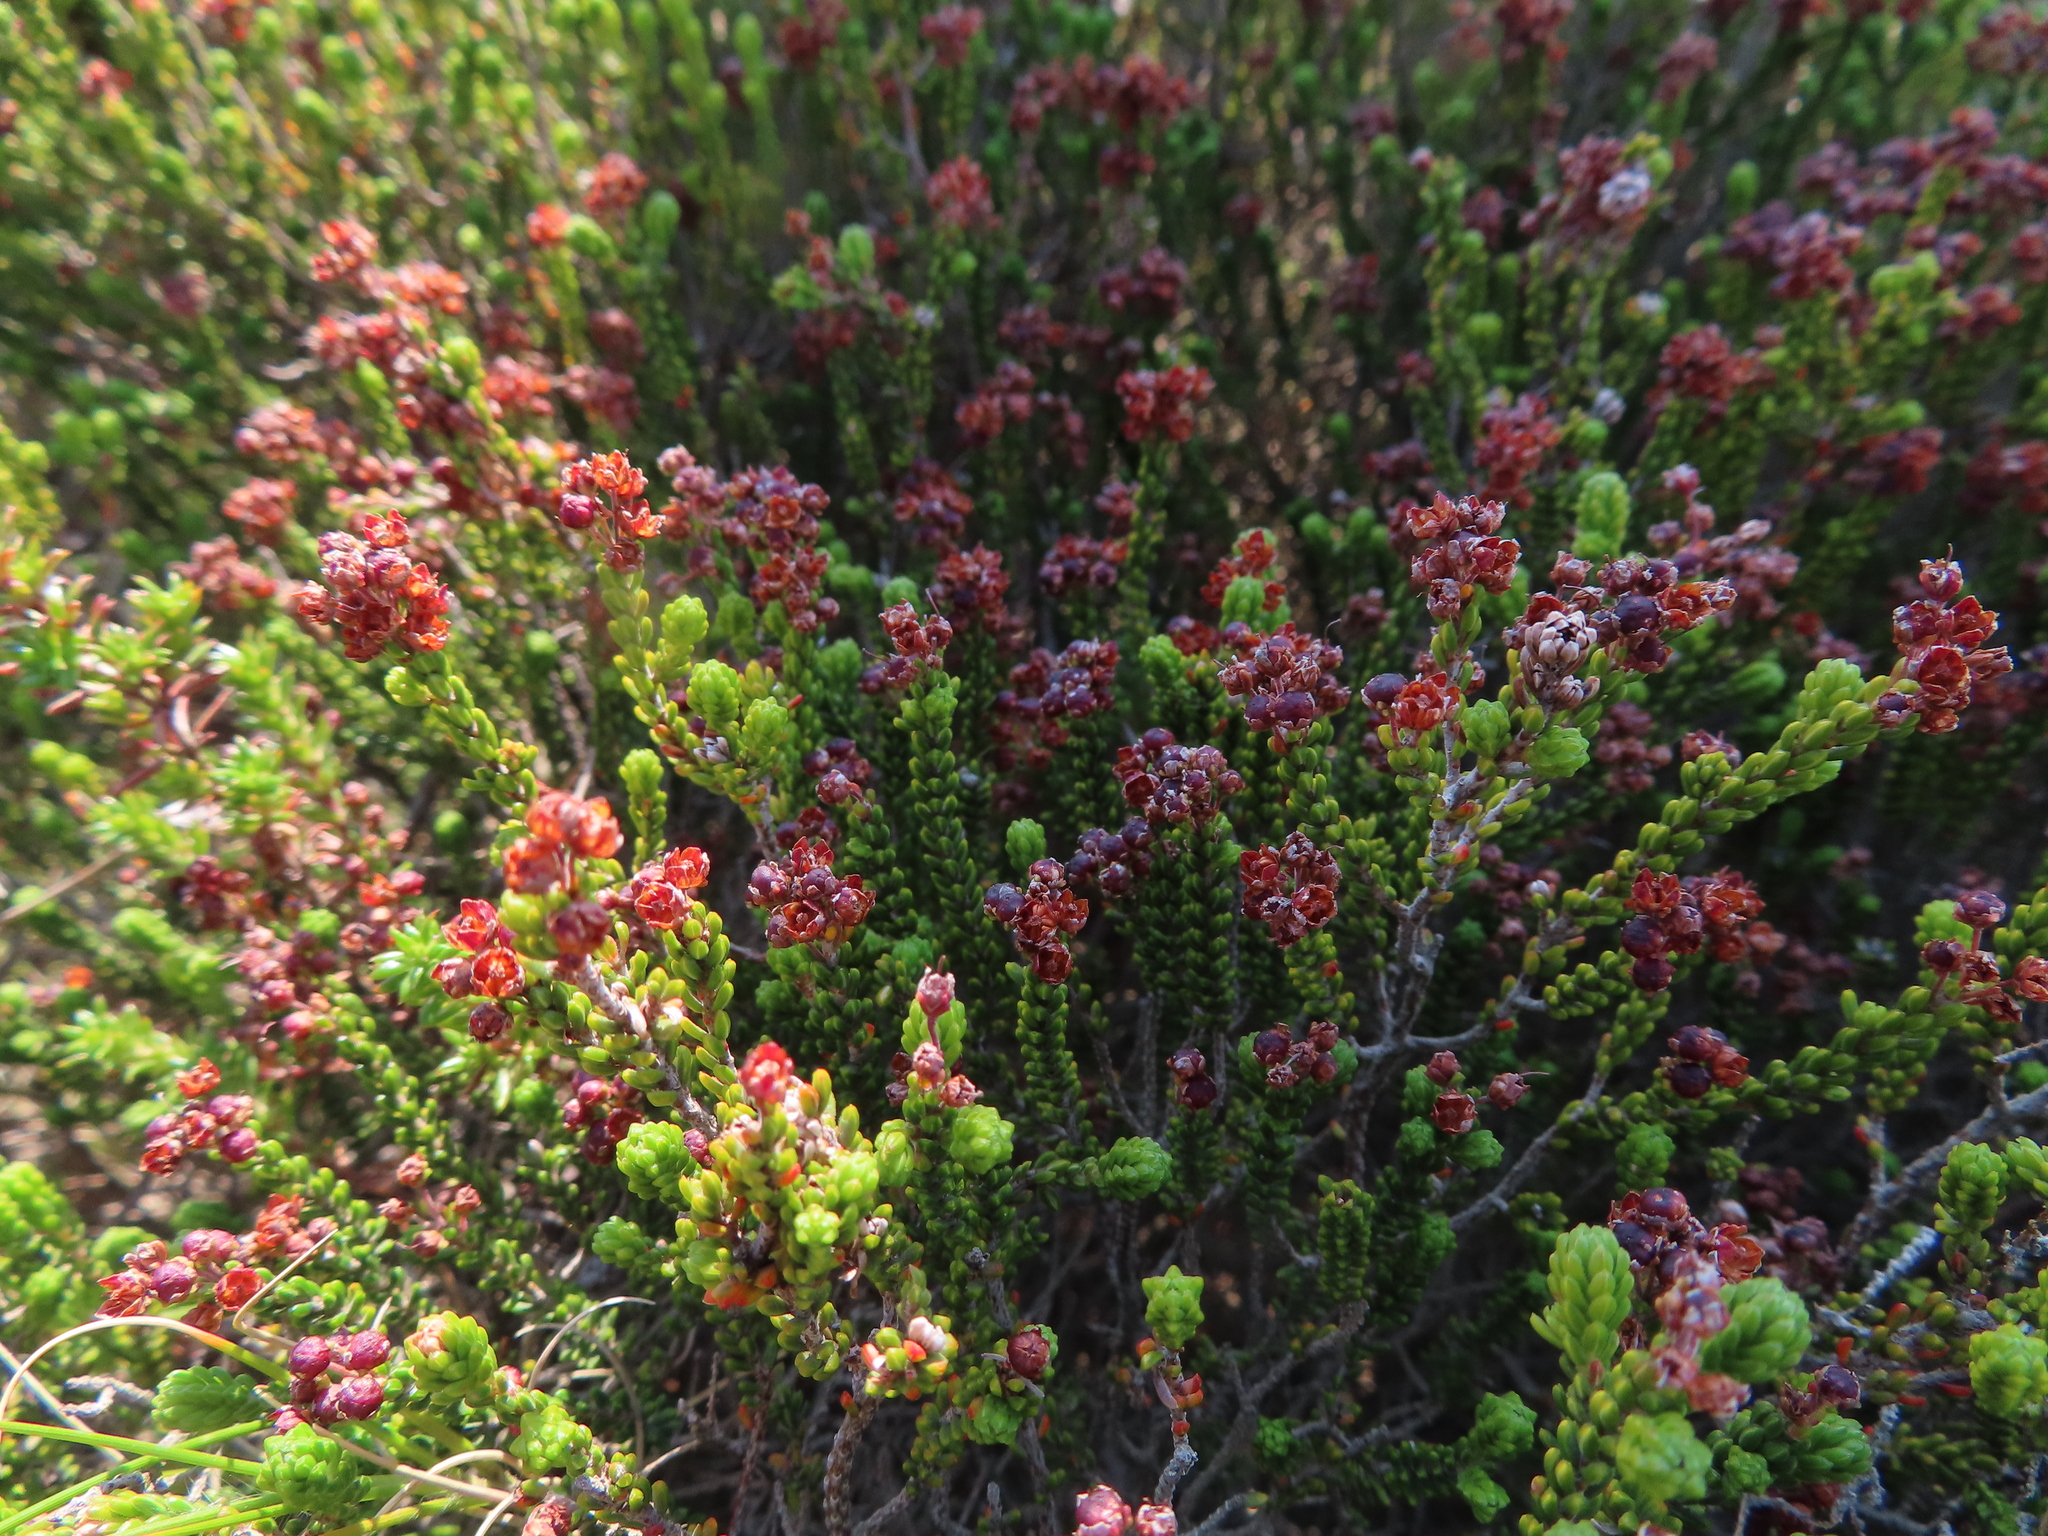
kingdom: Plantae
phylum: Tracheophyta
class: Magnoliopsida
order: Ericales
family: Ericaceae
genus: Erica
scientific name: Erica petraea
